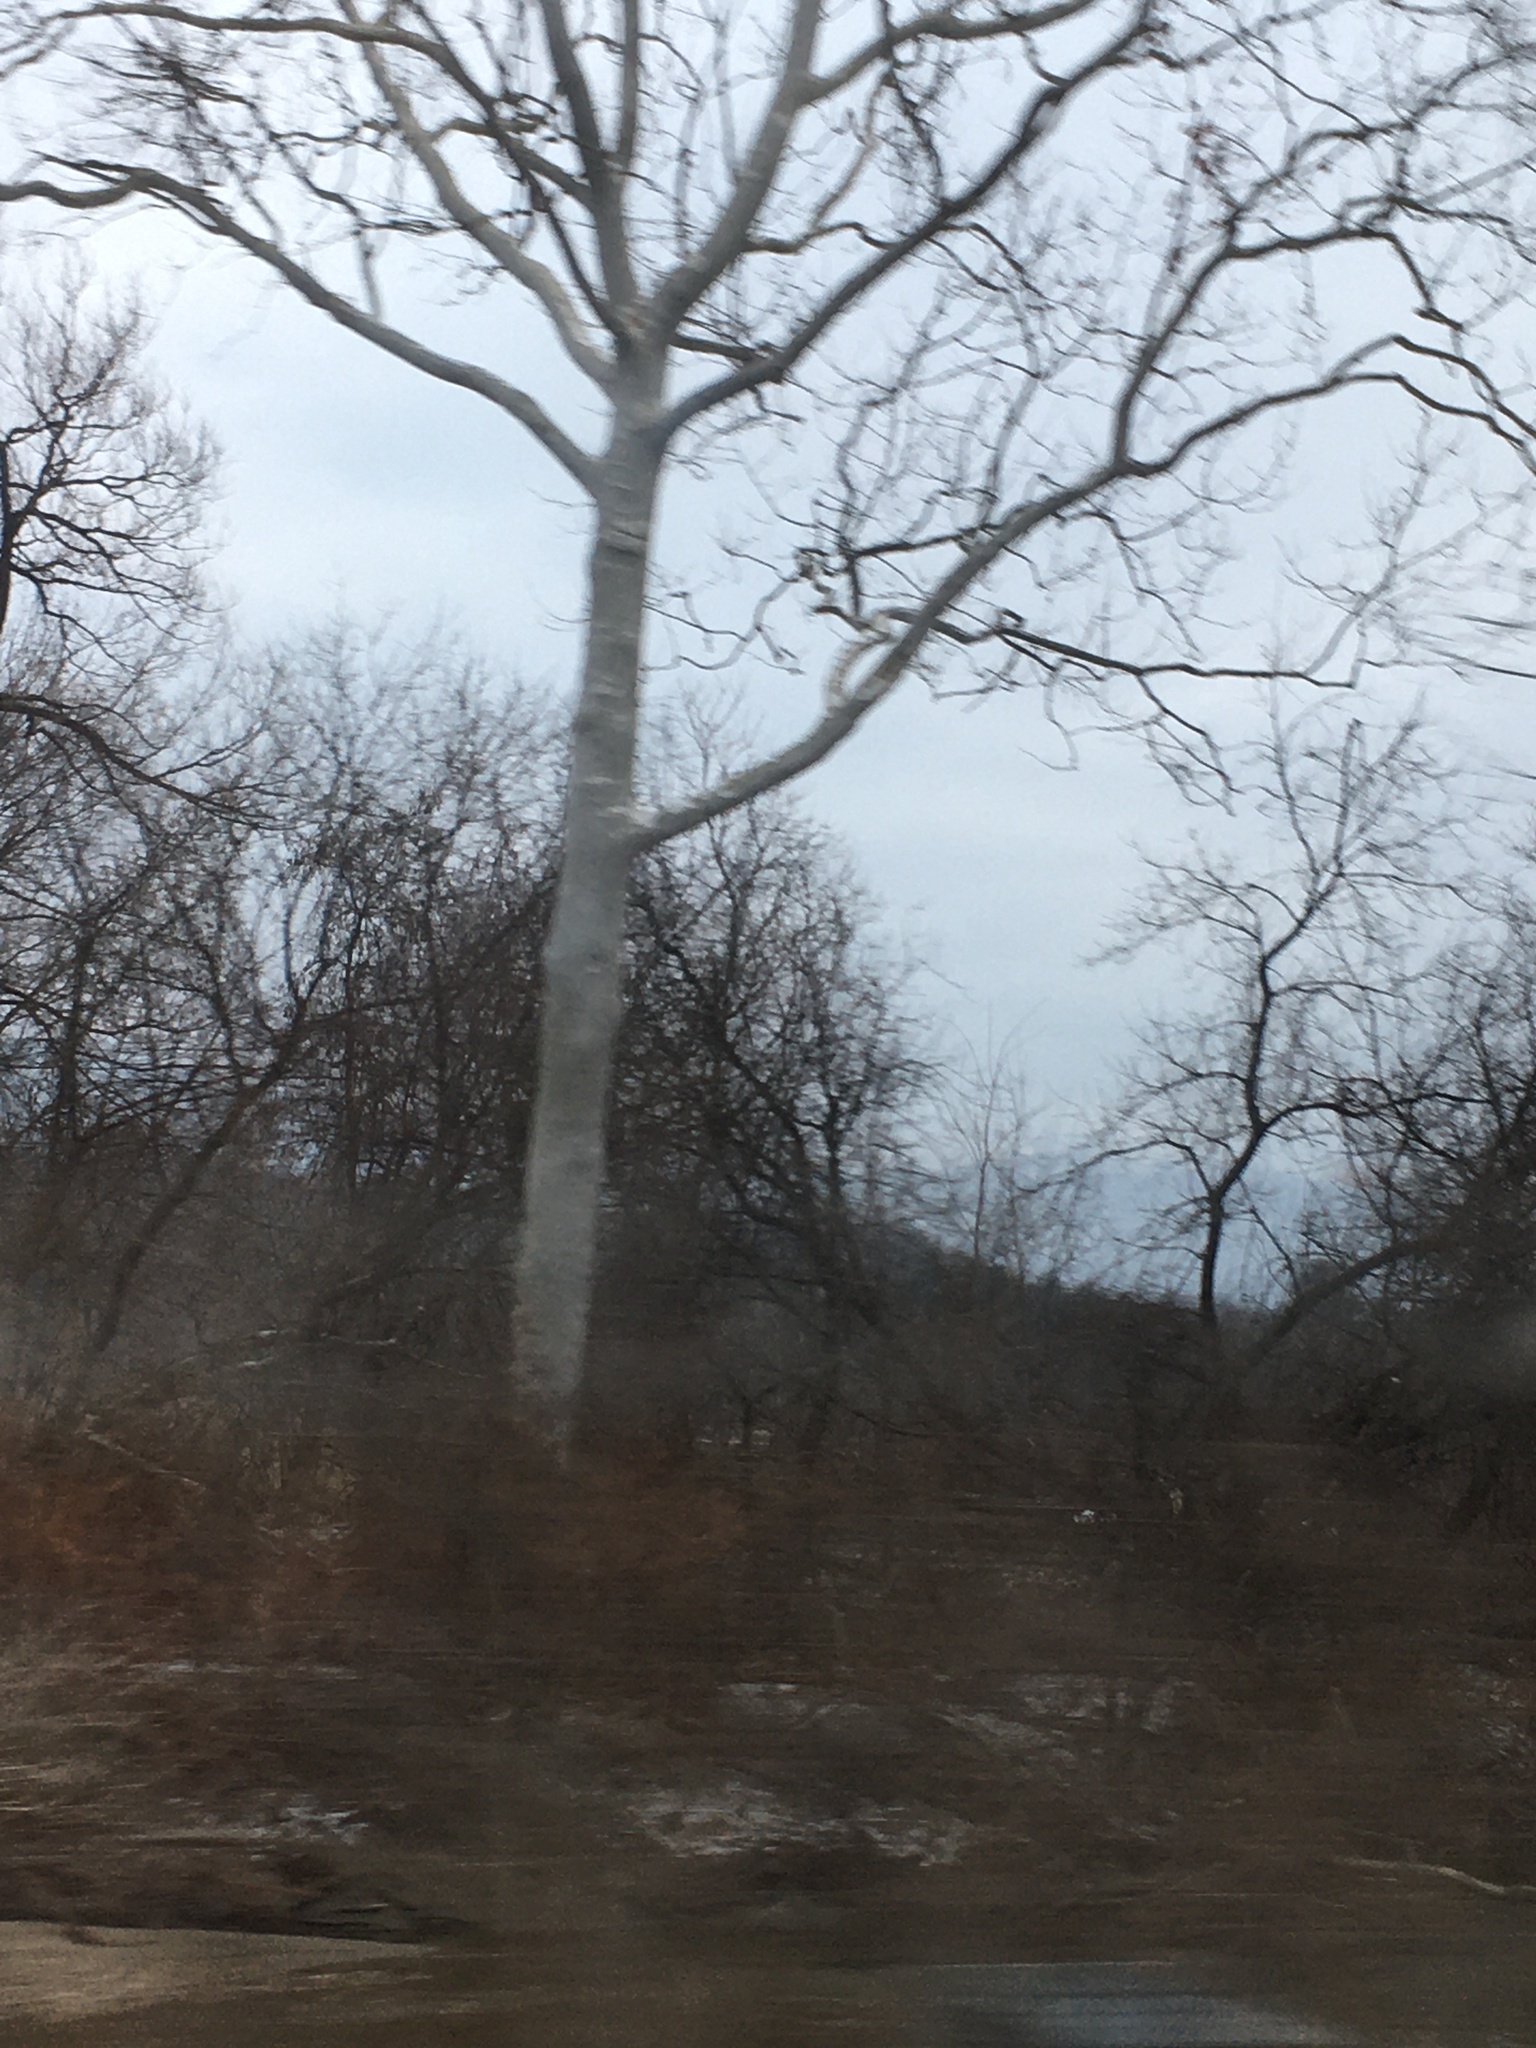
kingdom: Plantae
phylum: Tracheophyta
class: Magnoliopsida
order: Proteales
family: Platanaceae
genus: Platanus
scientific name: Platanus occidentalis
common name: American sycamore
